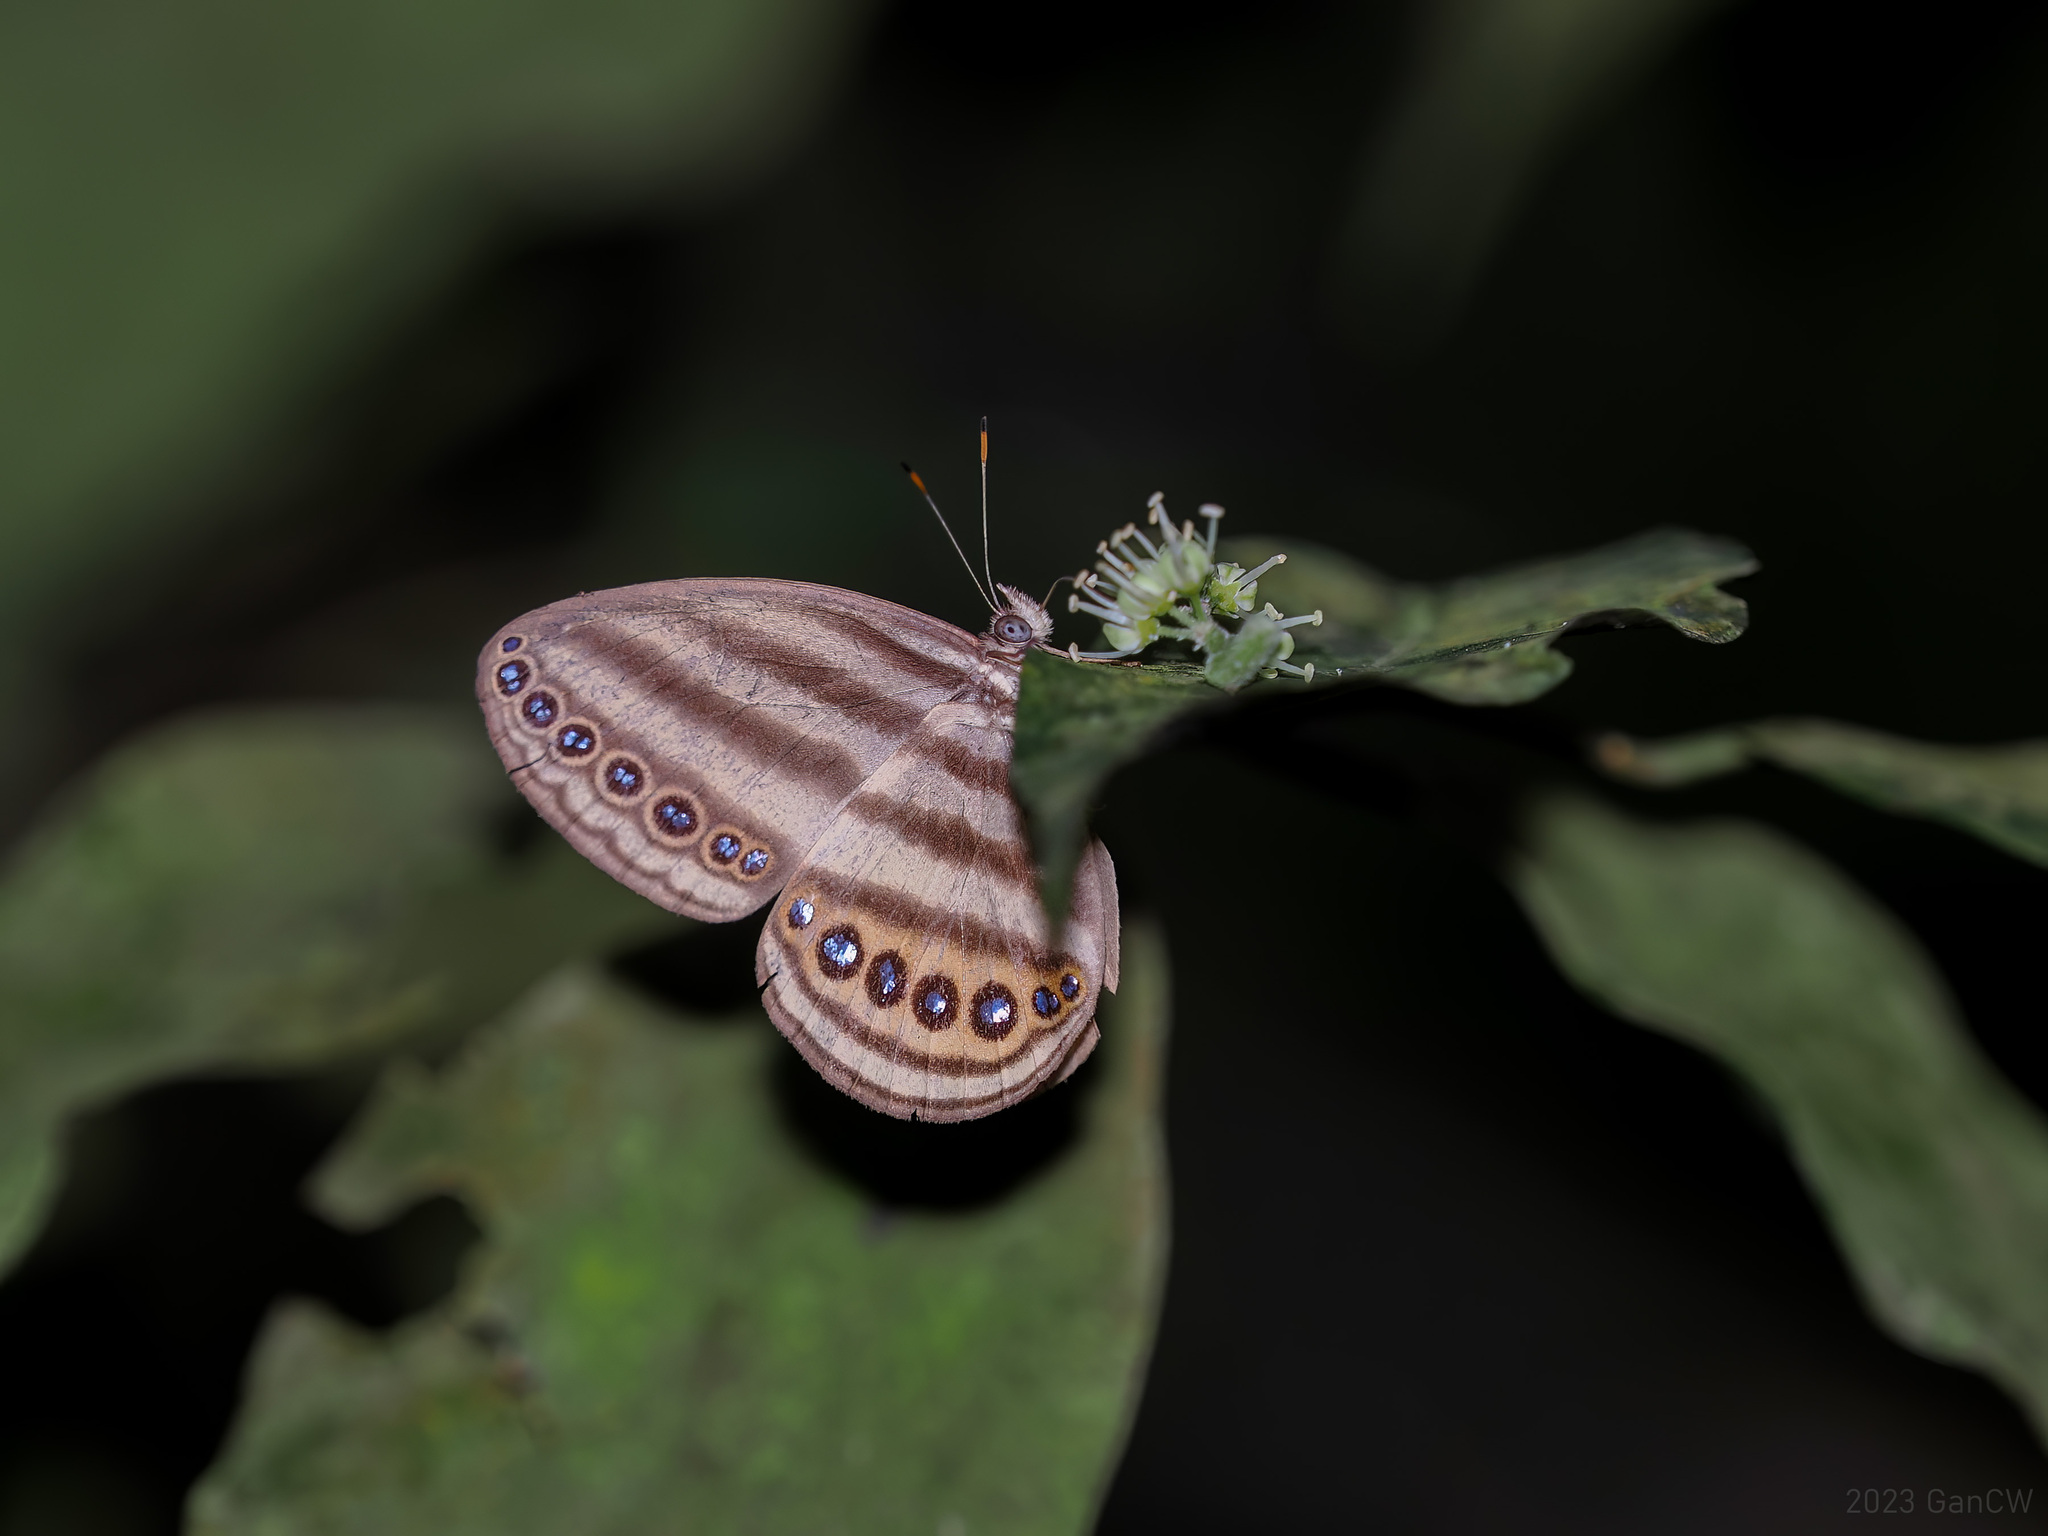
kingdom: Animalia
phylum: Arthropoda
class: Insecta
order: Lepidoptera
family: Nymphalidae
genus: Ragadia
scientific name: Ragadia makuta
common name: Striped ringlet
